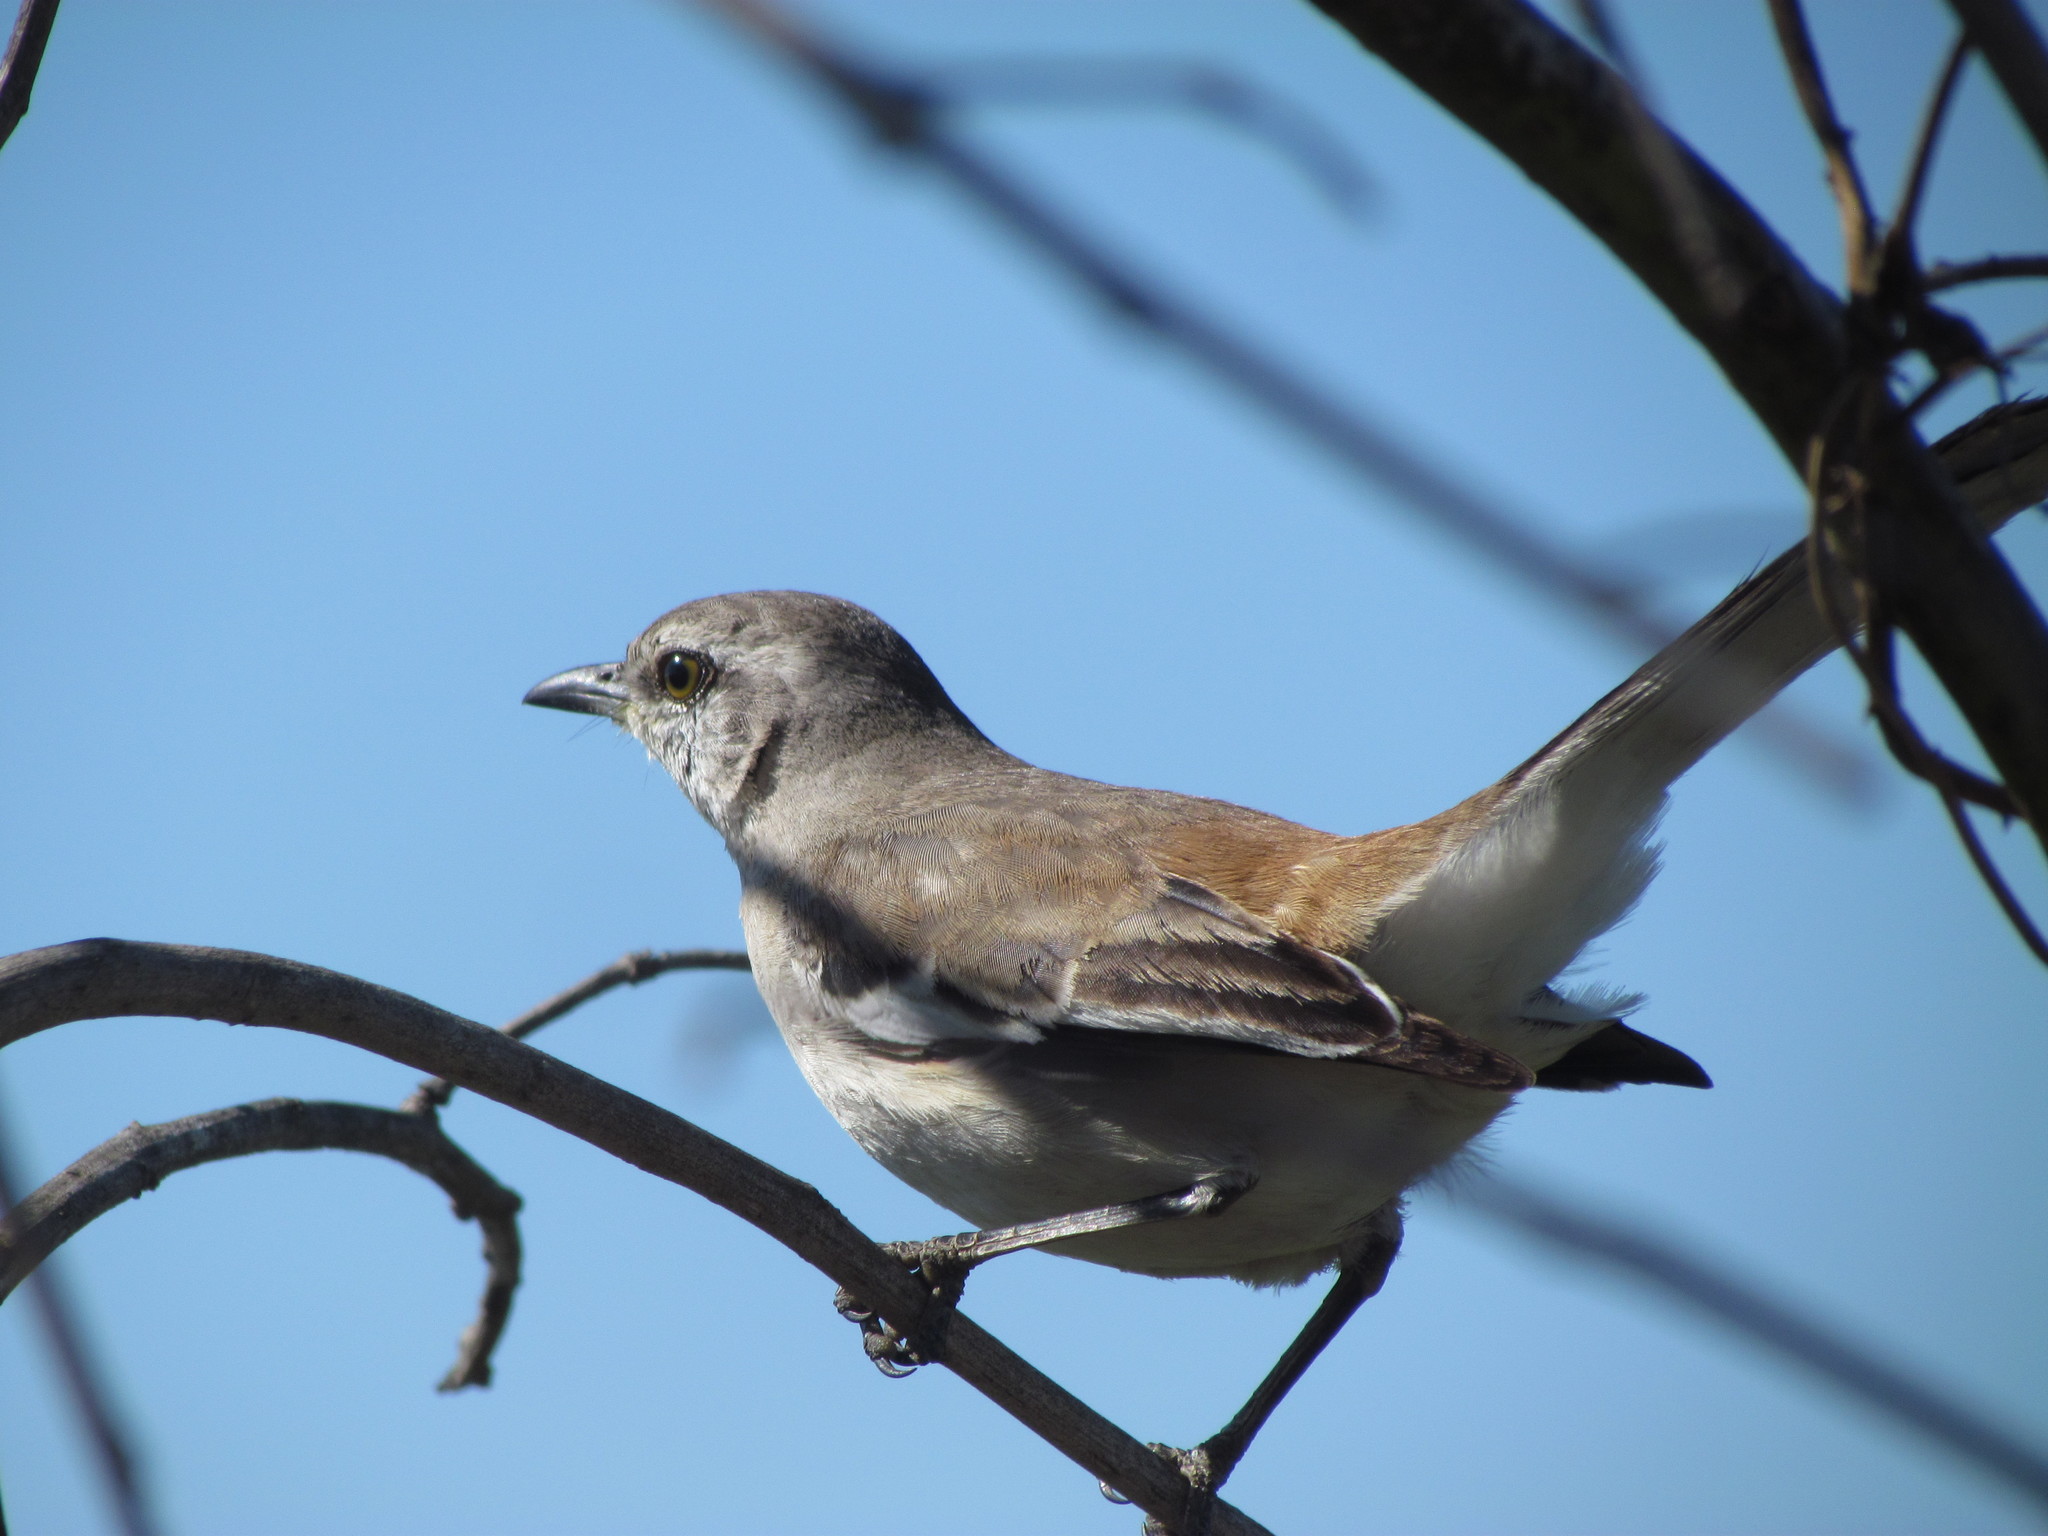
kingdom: Animalia
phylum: Chordata
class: Aves
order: Passeriformes
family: Mimidae
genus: Mimus
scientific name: Mimus triurus
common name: White-banded mockingbird
